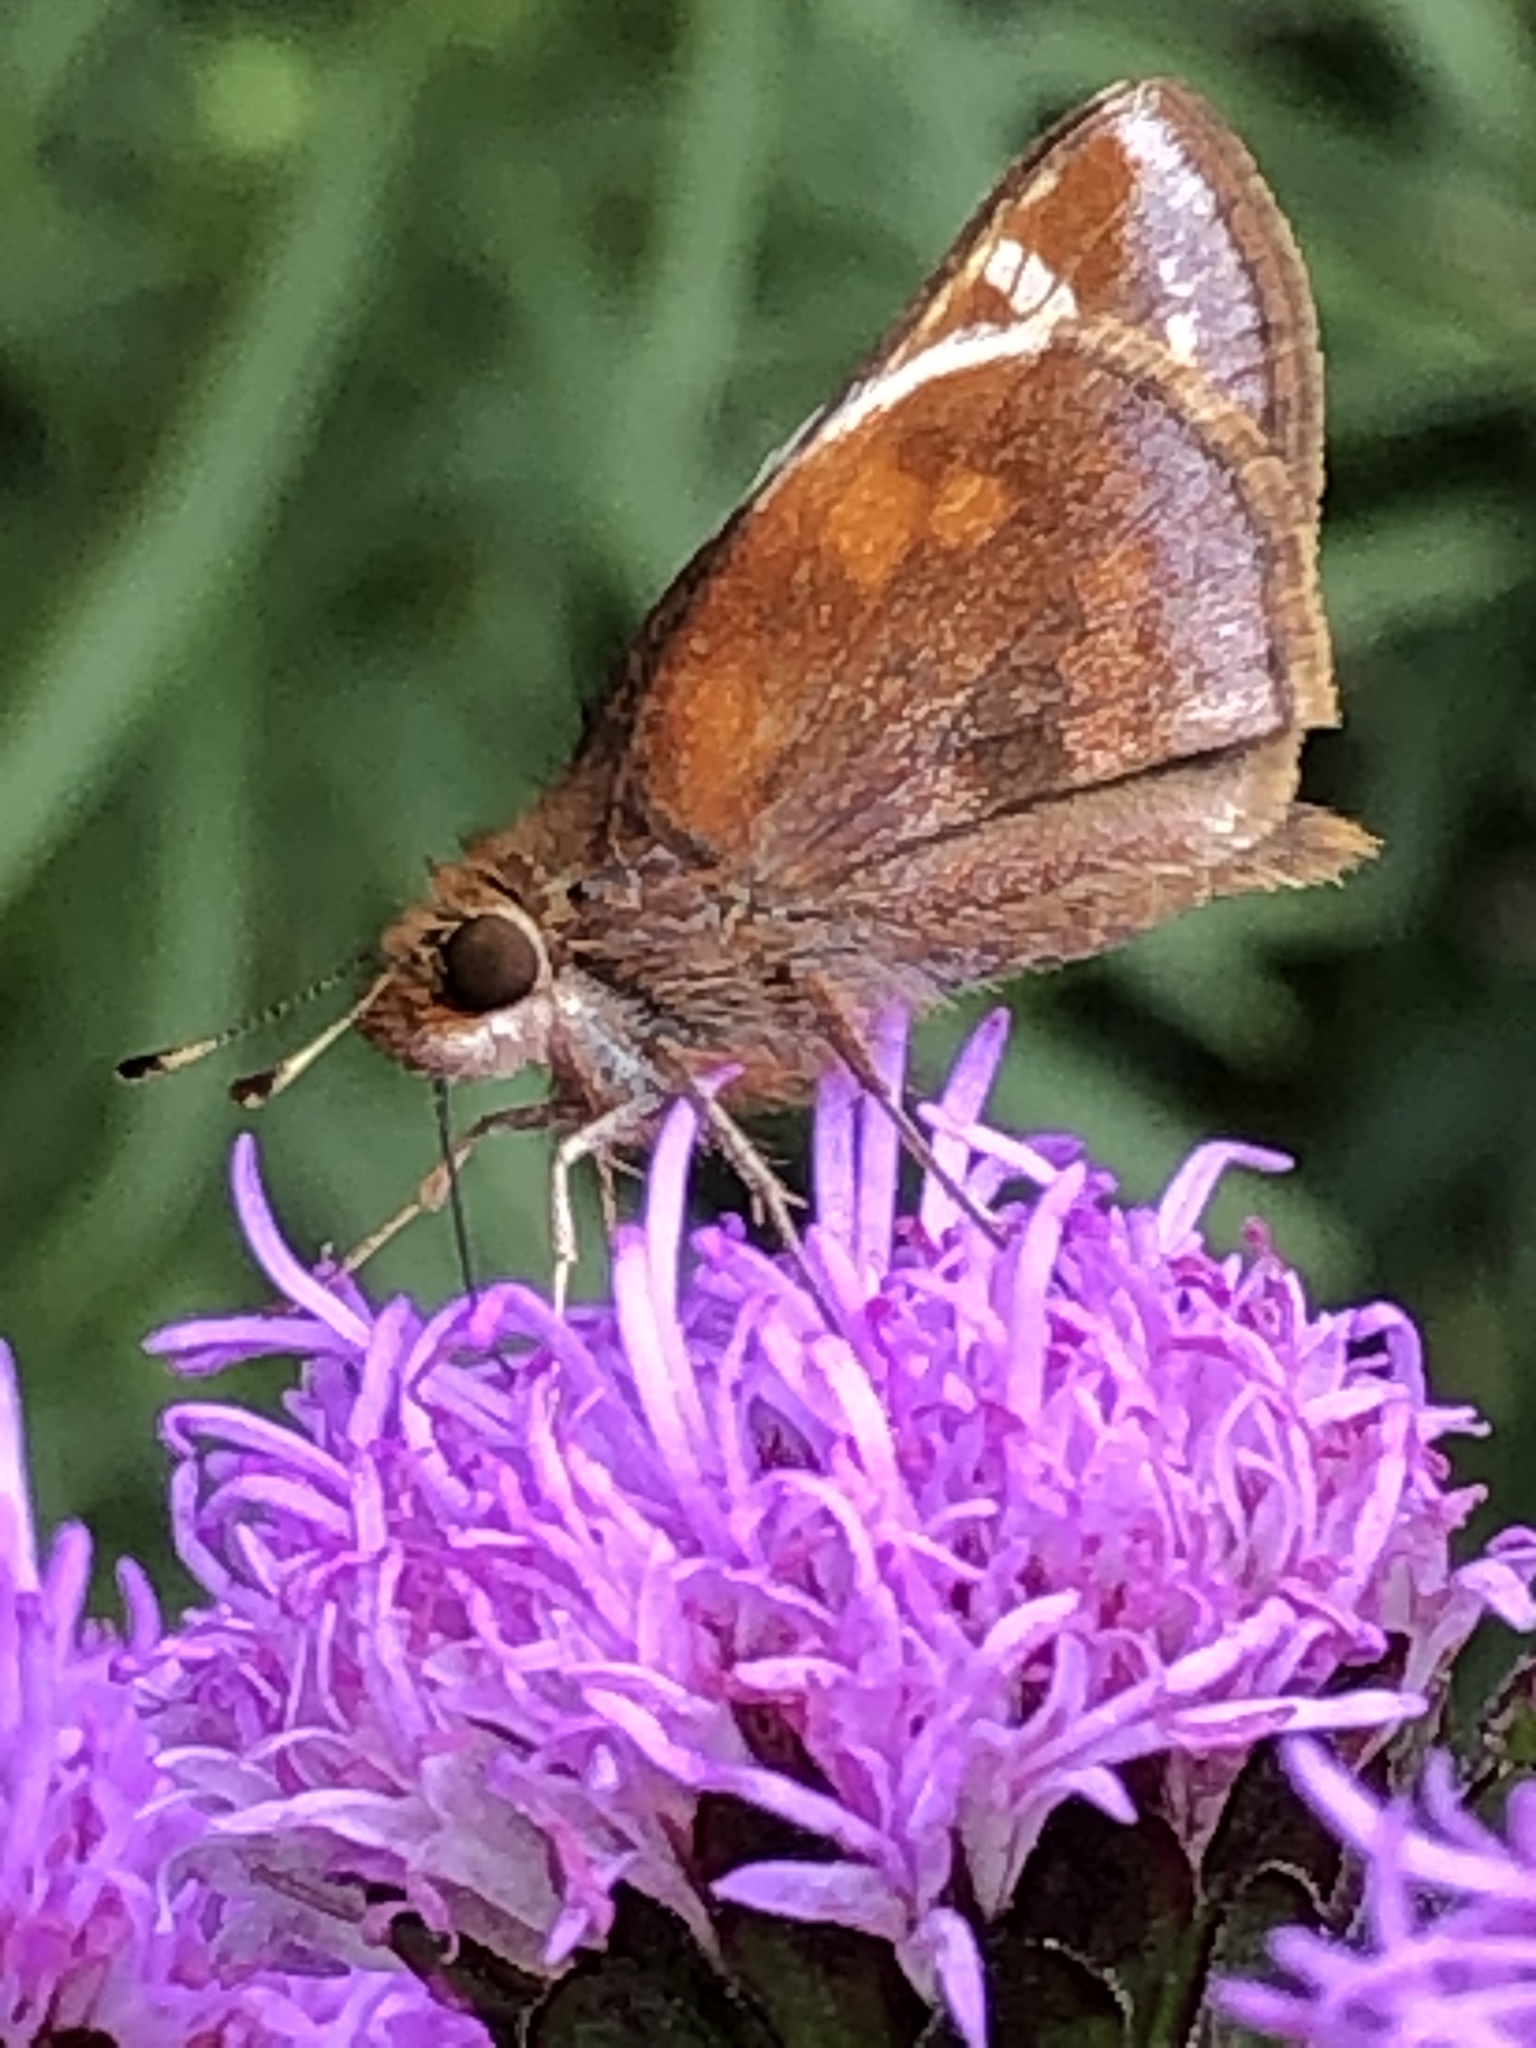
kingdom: Animalia
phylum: Arthropoda
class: Insecta
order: Lepidoptera
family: Hesperiidae
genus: Lon
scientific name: Lon zabulon
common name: Zabulon skipper
